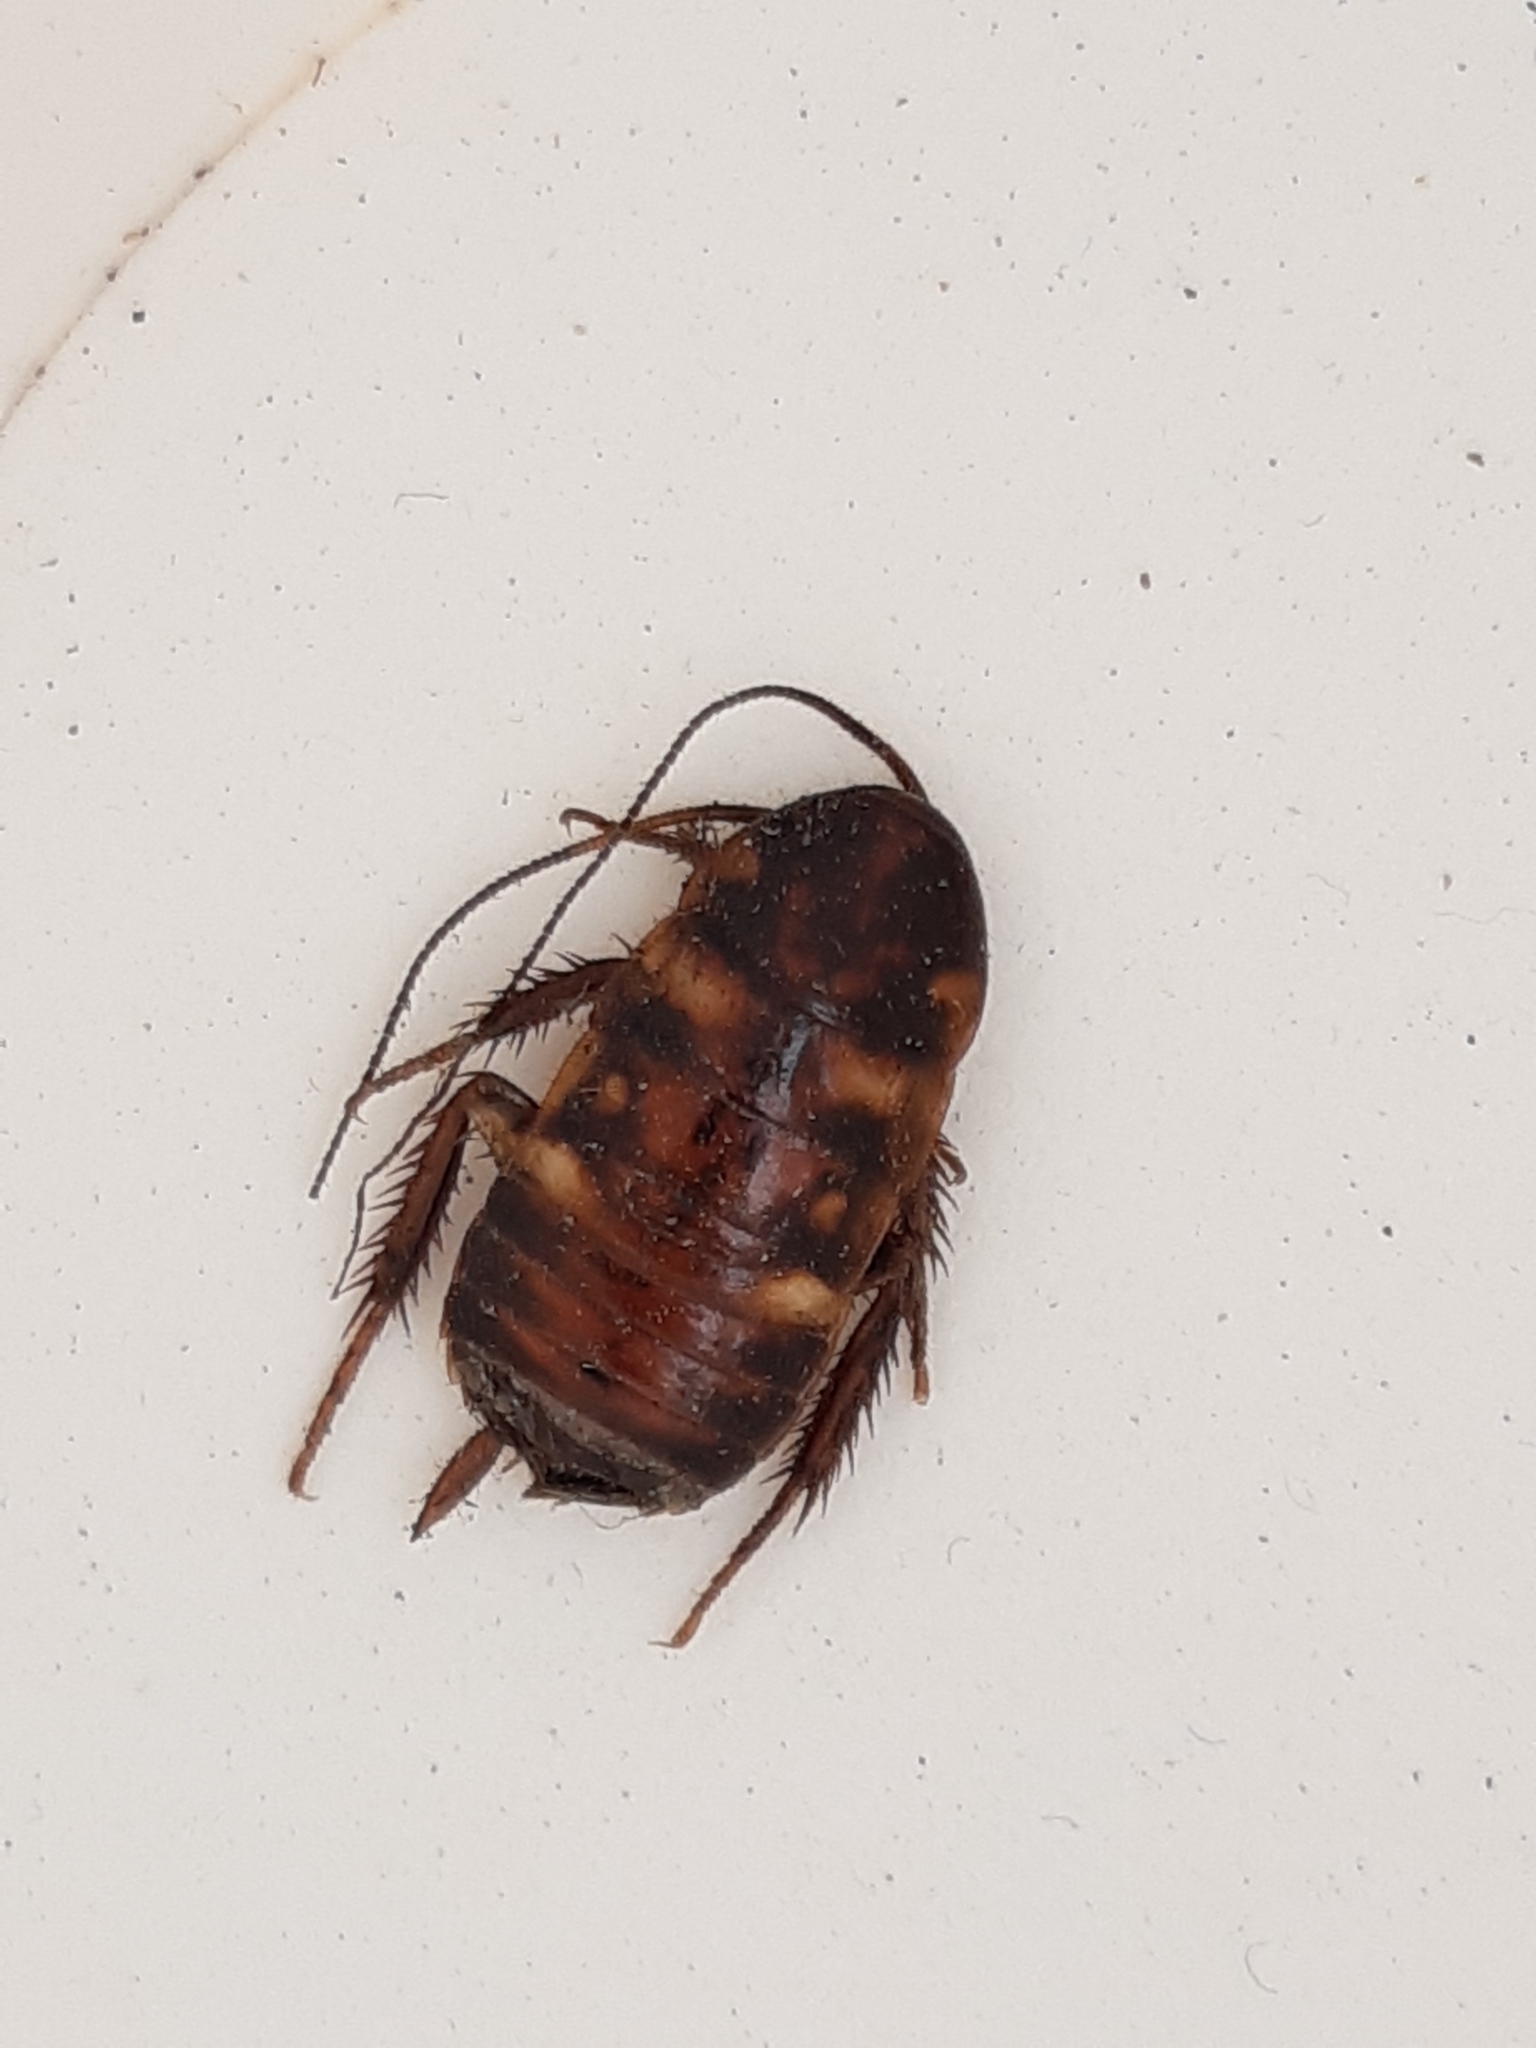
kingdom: Animalia
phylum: Arthropoda
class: Insecta
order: Blattodea
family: Blattidae
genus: Periplaneta
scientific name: Periplaneta australasiae
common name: Australian cockroach
